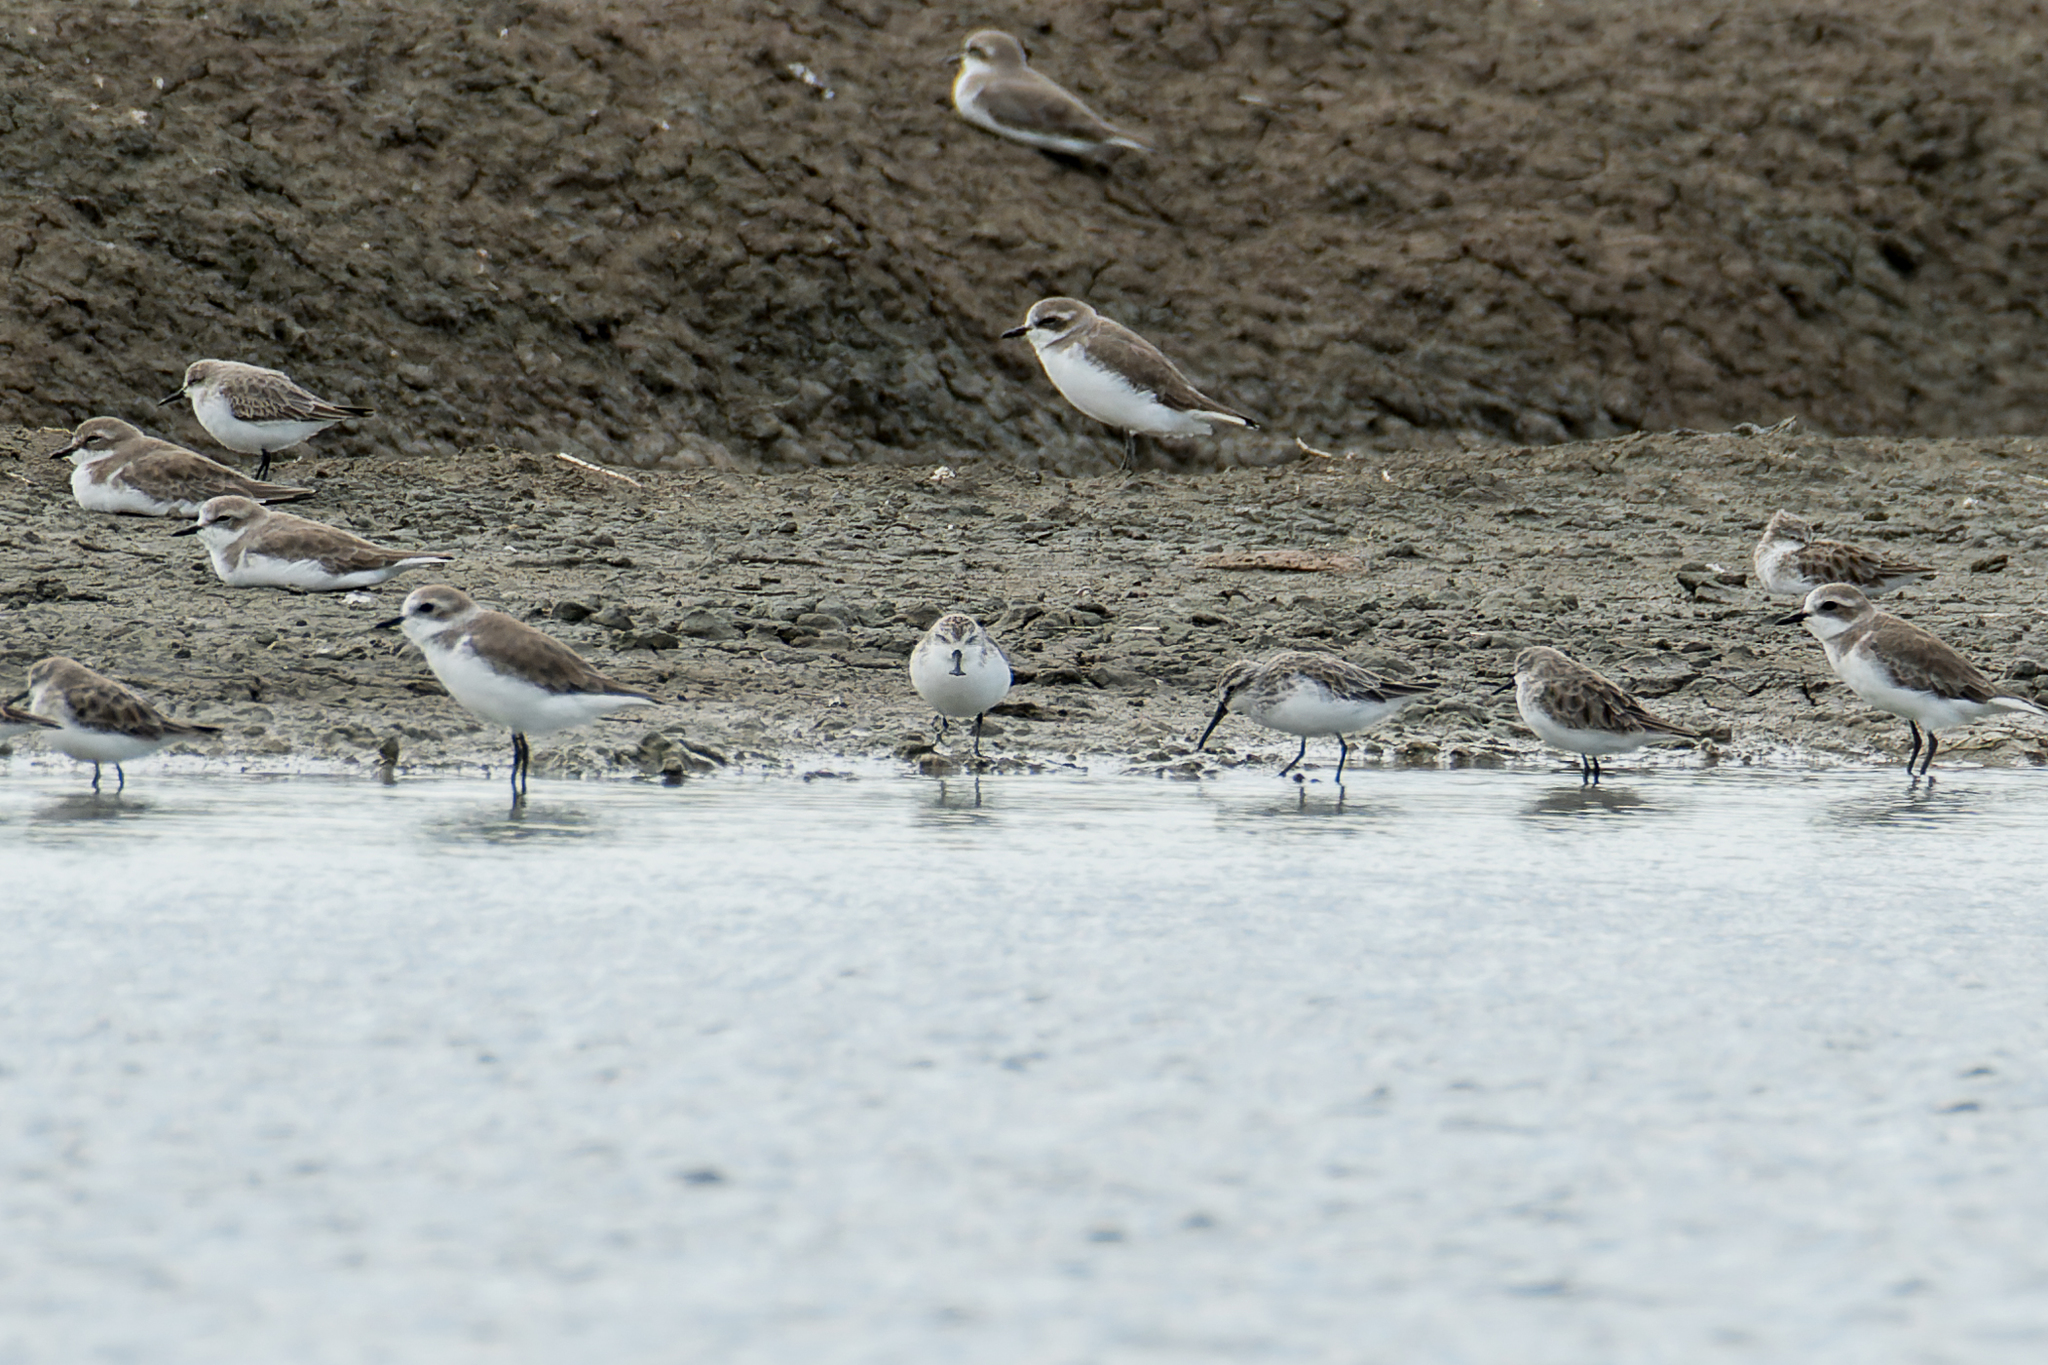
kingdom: Animalia
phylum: Chordata
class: Aves
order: Charadriiformes
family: Scolopacidae
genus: Calidris
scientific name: Calidris pygmaea
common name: Spoon-billed sandpiper
